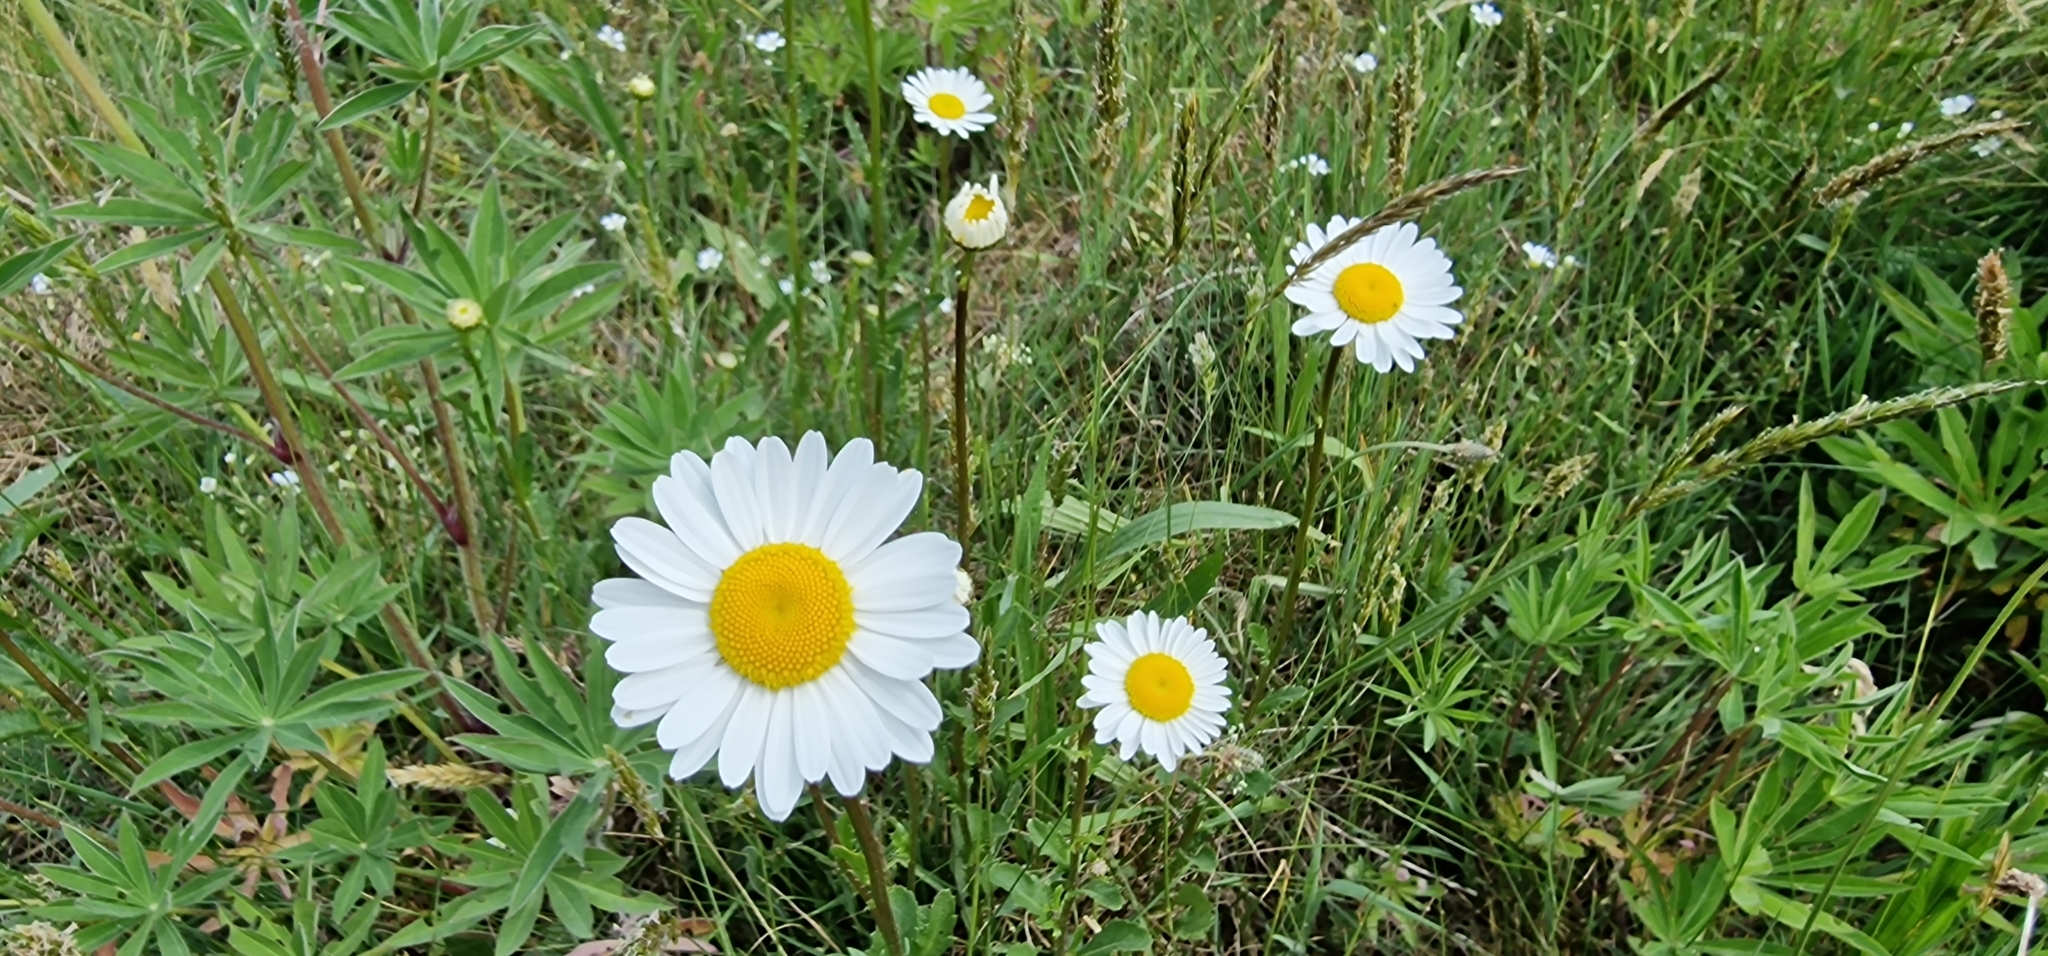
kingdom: Plantae
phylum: Tracheophyta
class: Magnoliopsida
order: Asterales
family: Asteraceae
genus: Leucanthemum
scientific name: Leucanthemum vulgare
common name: Oxeye daisy
